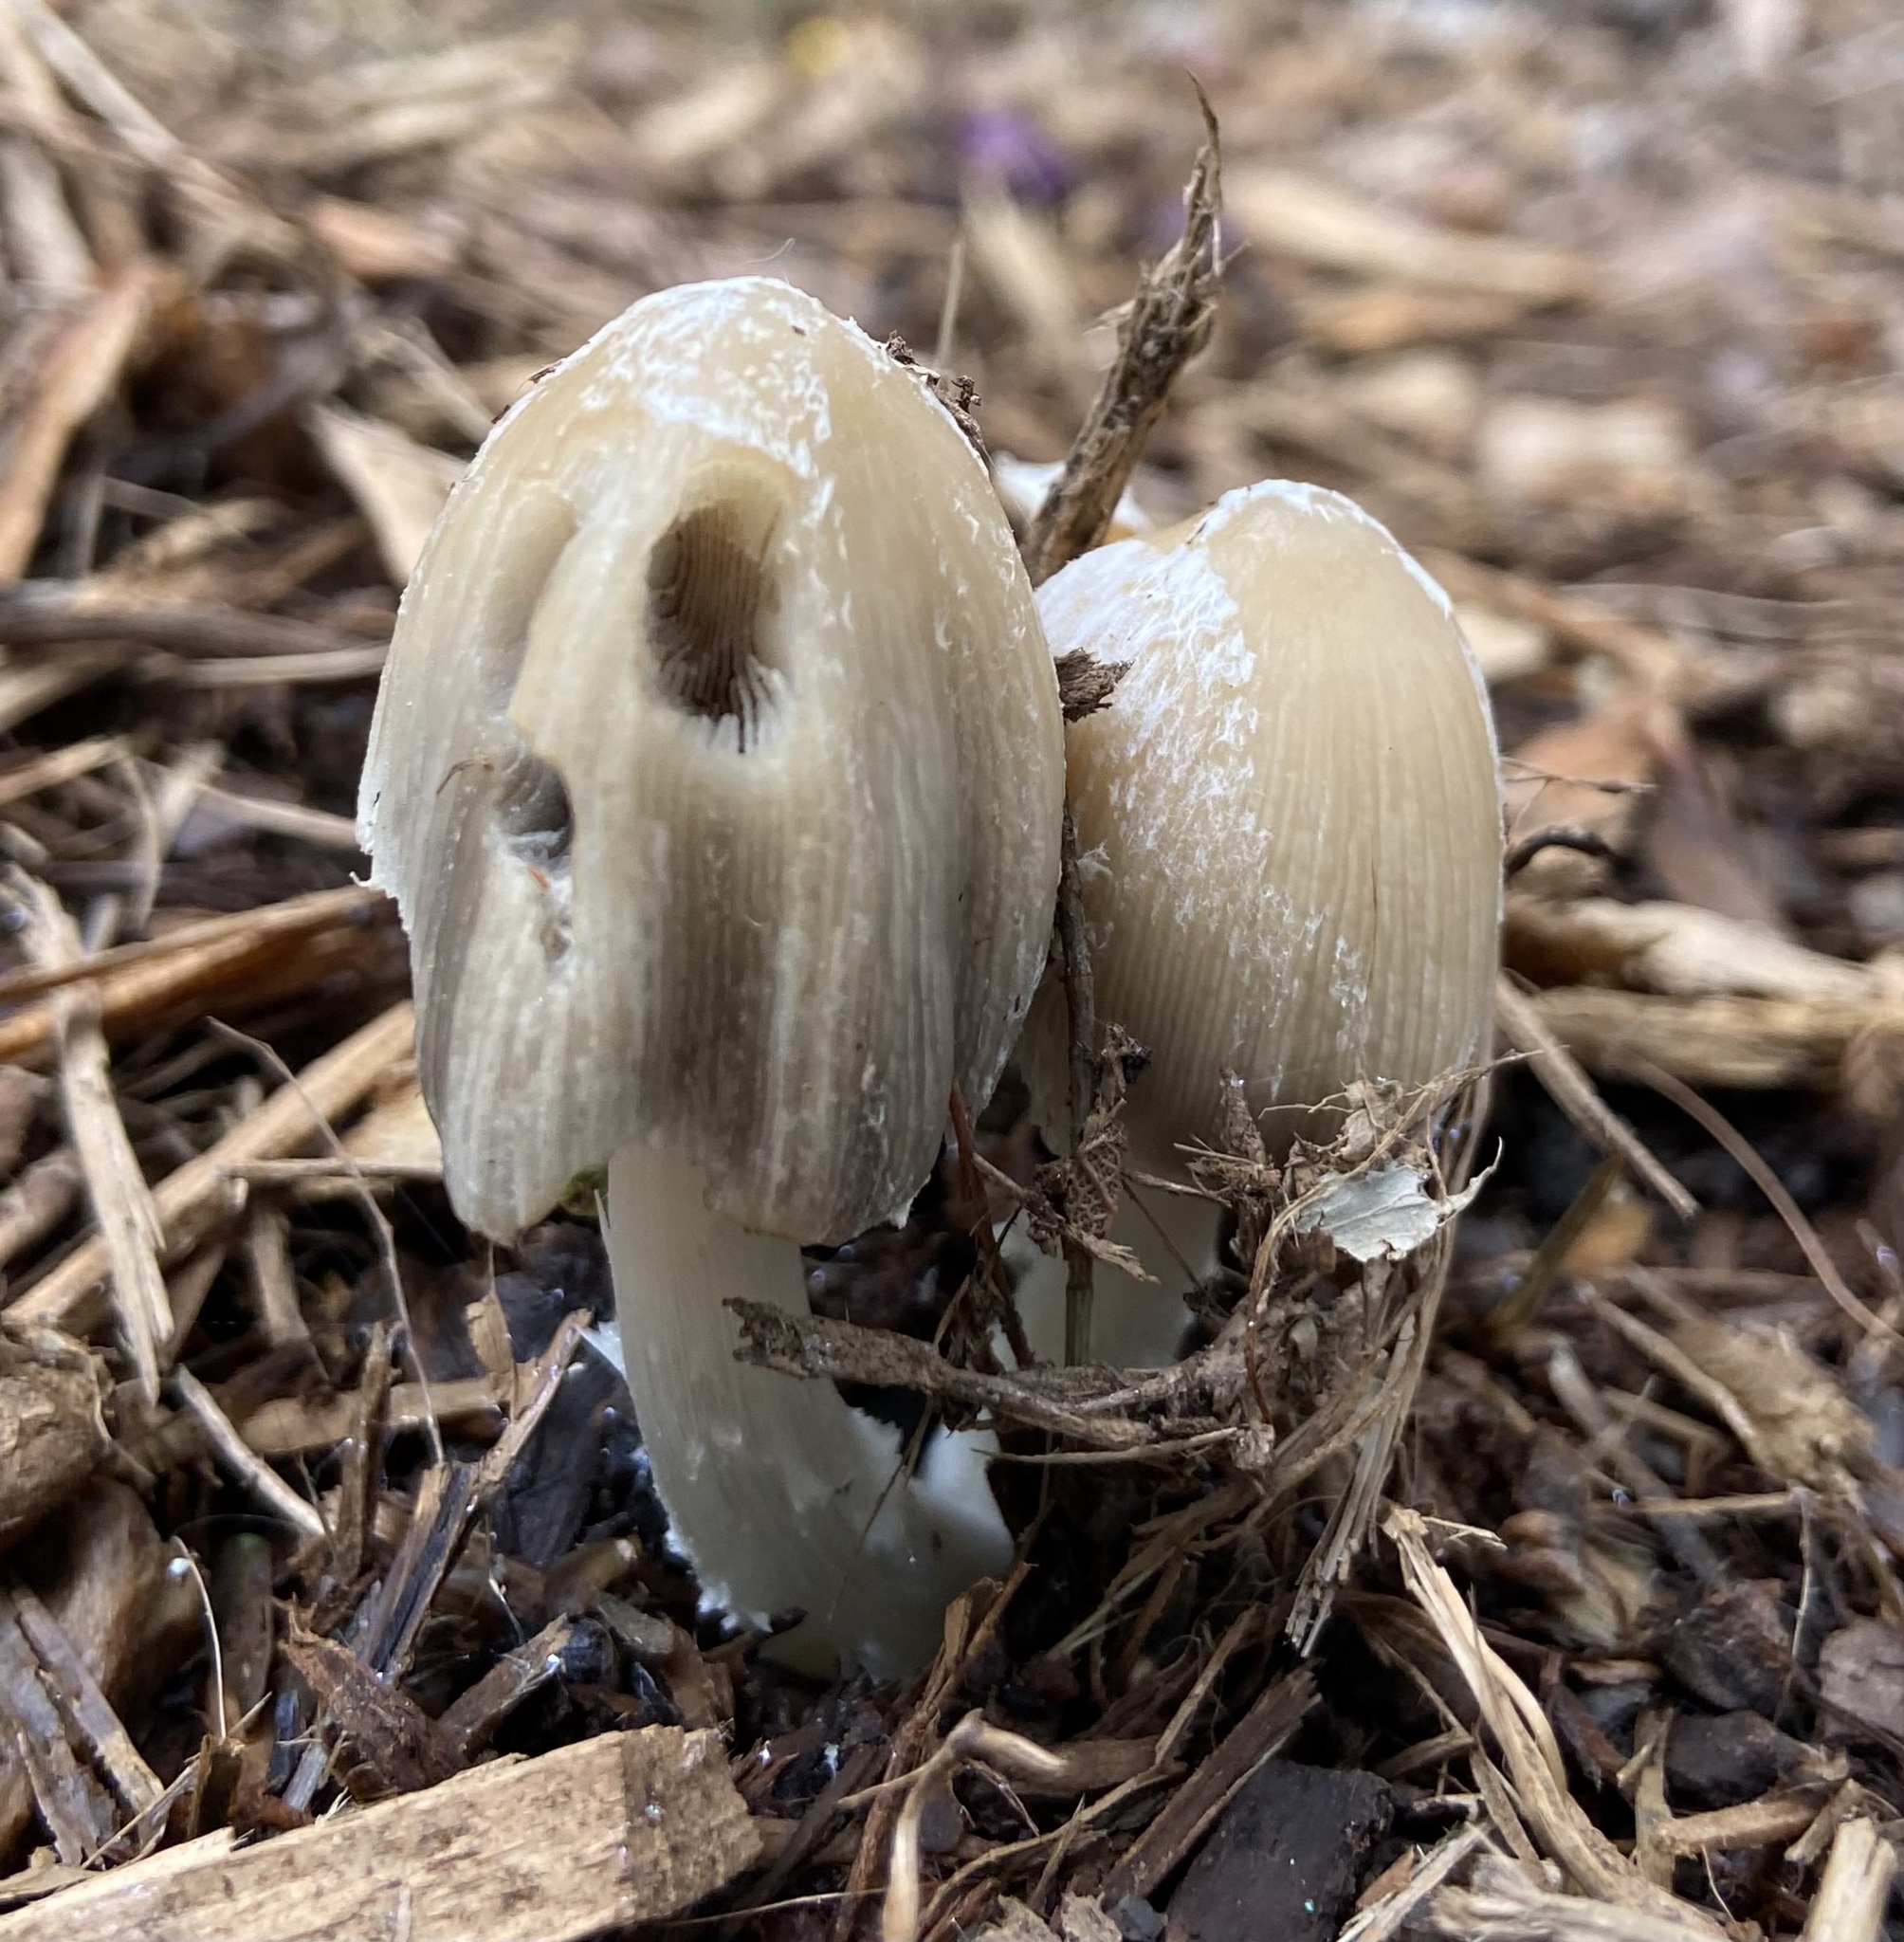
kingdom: Fungi
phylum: Basidiomycota
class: Agaricomycetes
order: Agaricales
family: Psathyrellaceae
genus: Coprinellus
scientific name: Coprinellus flocculosus
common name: Flocculose inkcap
